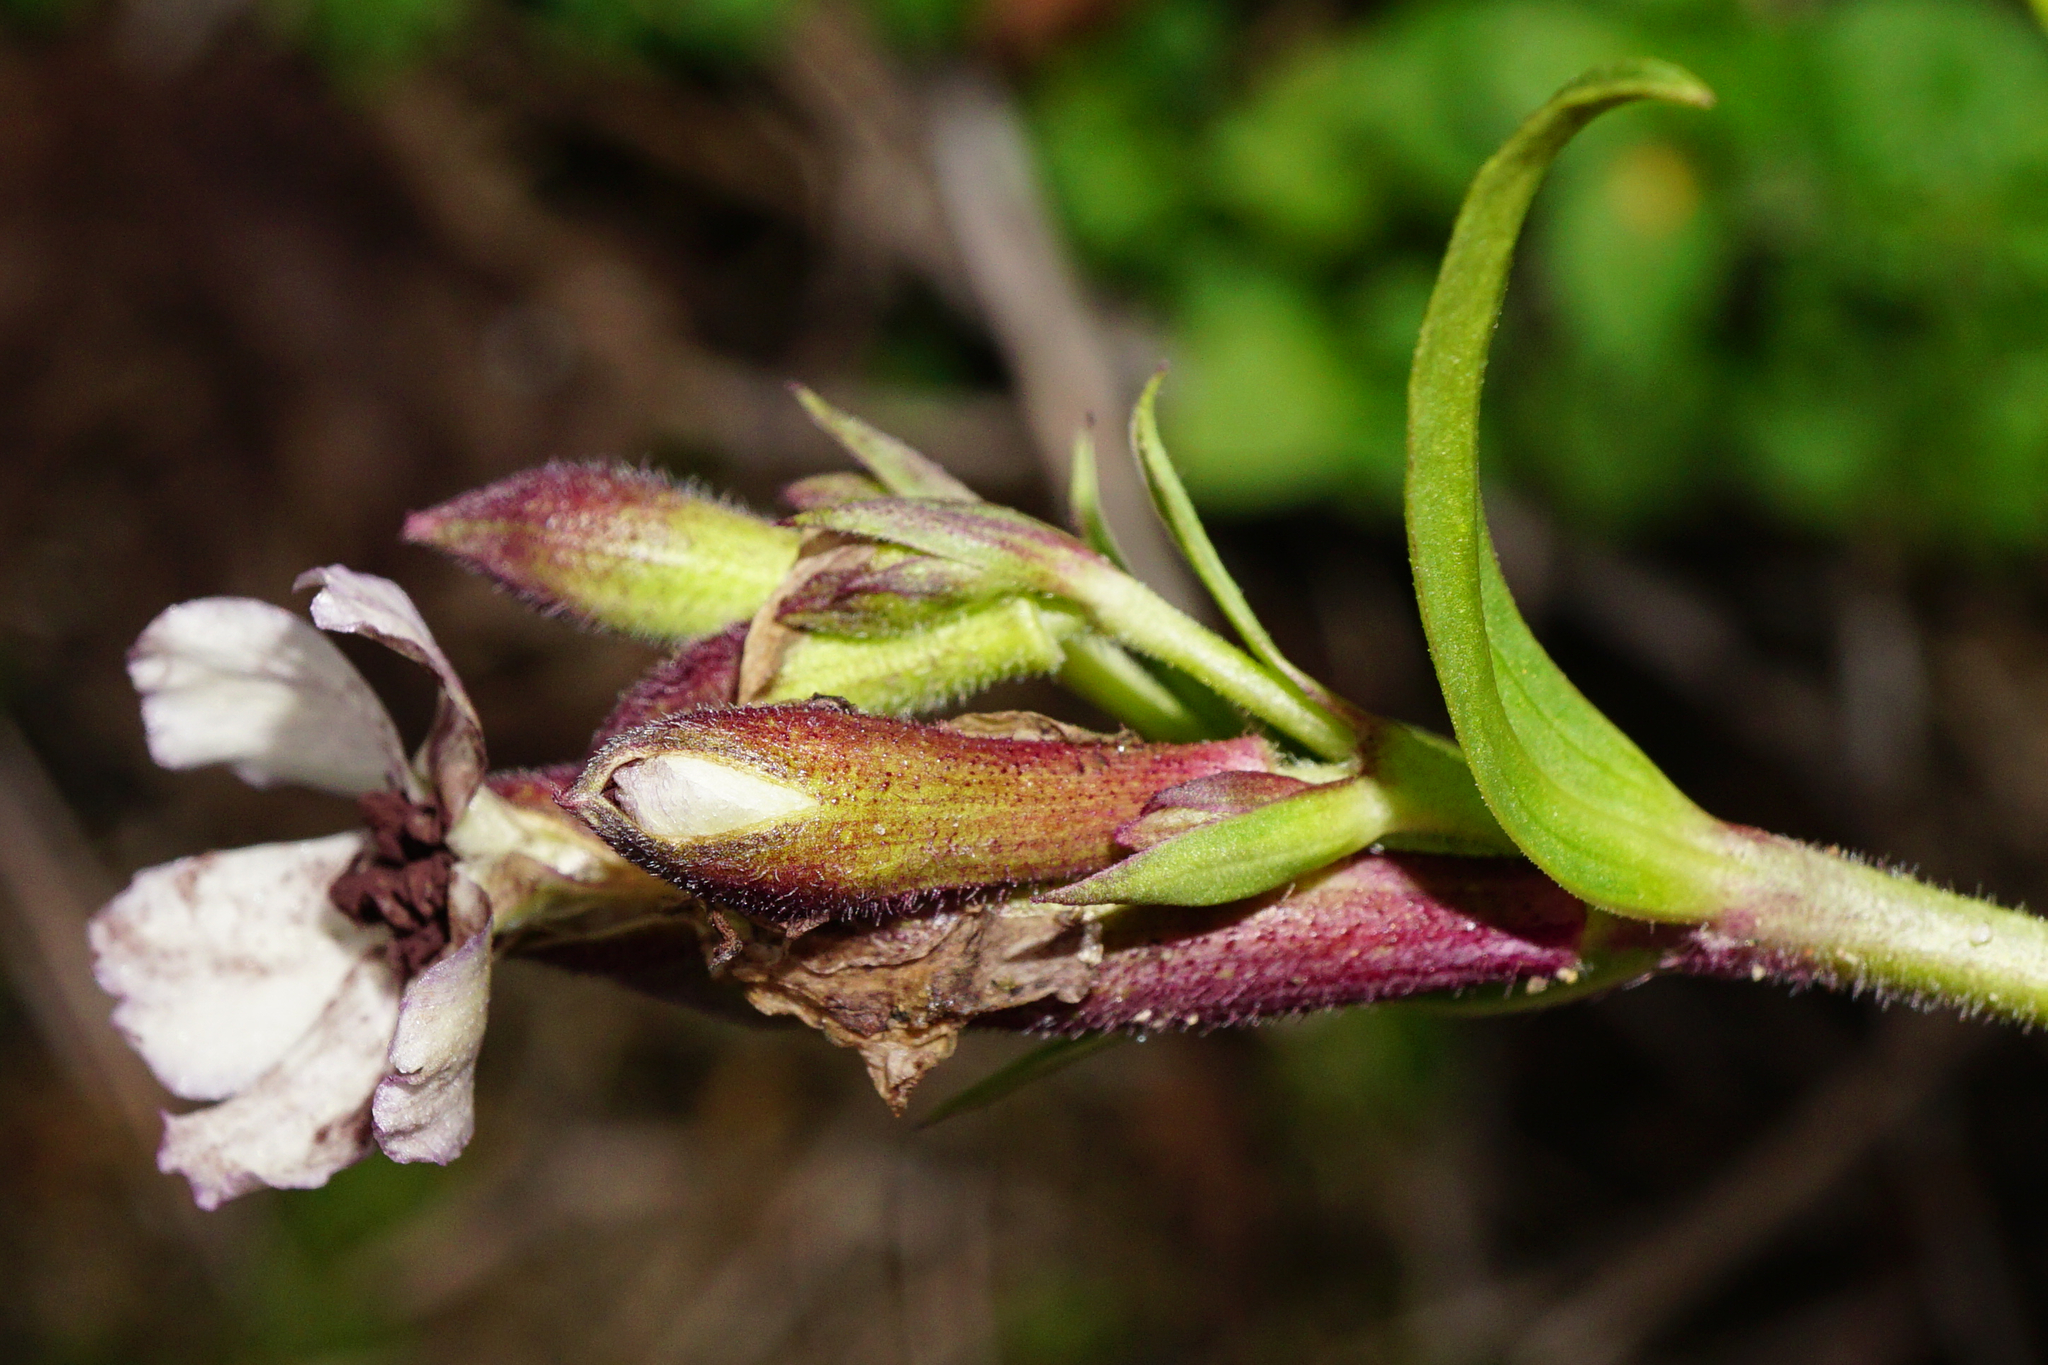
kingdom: Plantae
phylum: Tracheophyta
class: Magnoliopsida
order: Caryophyllales
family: Caryophyllaceae
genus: Saponaria
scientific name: Saponaria officinalis
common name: Soapwort
